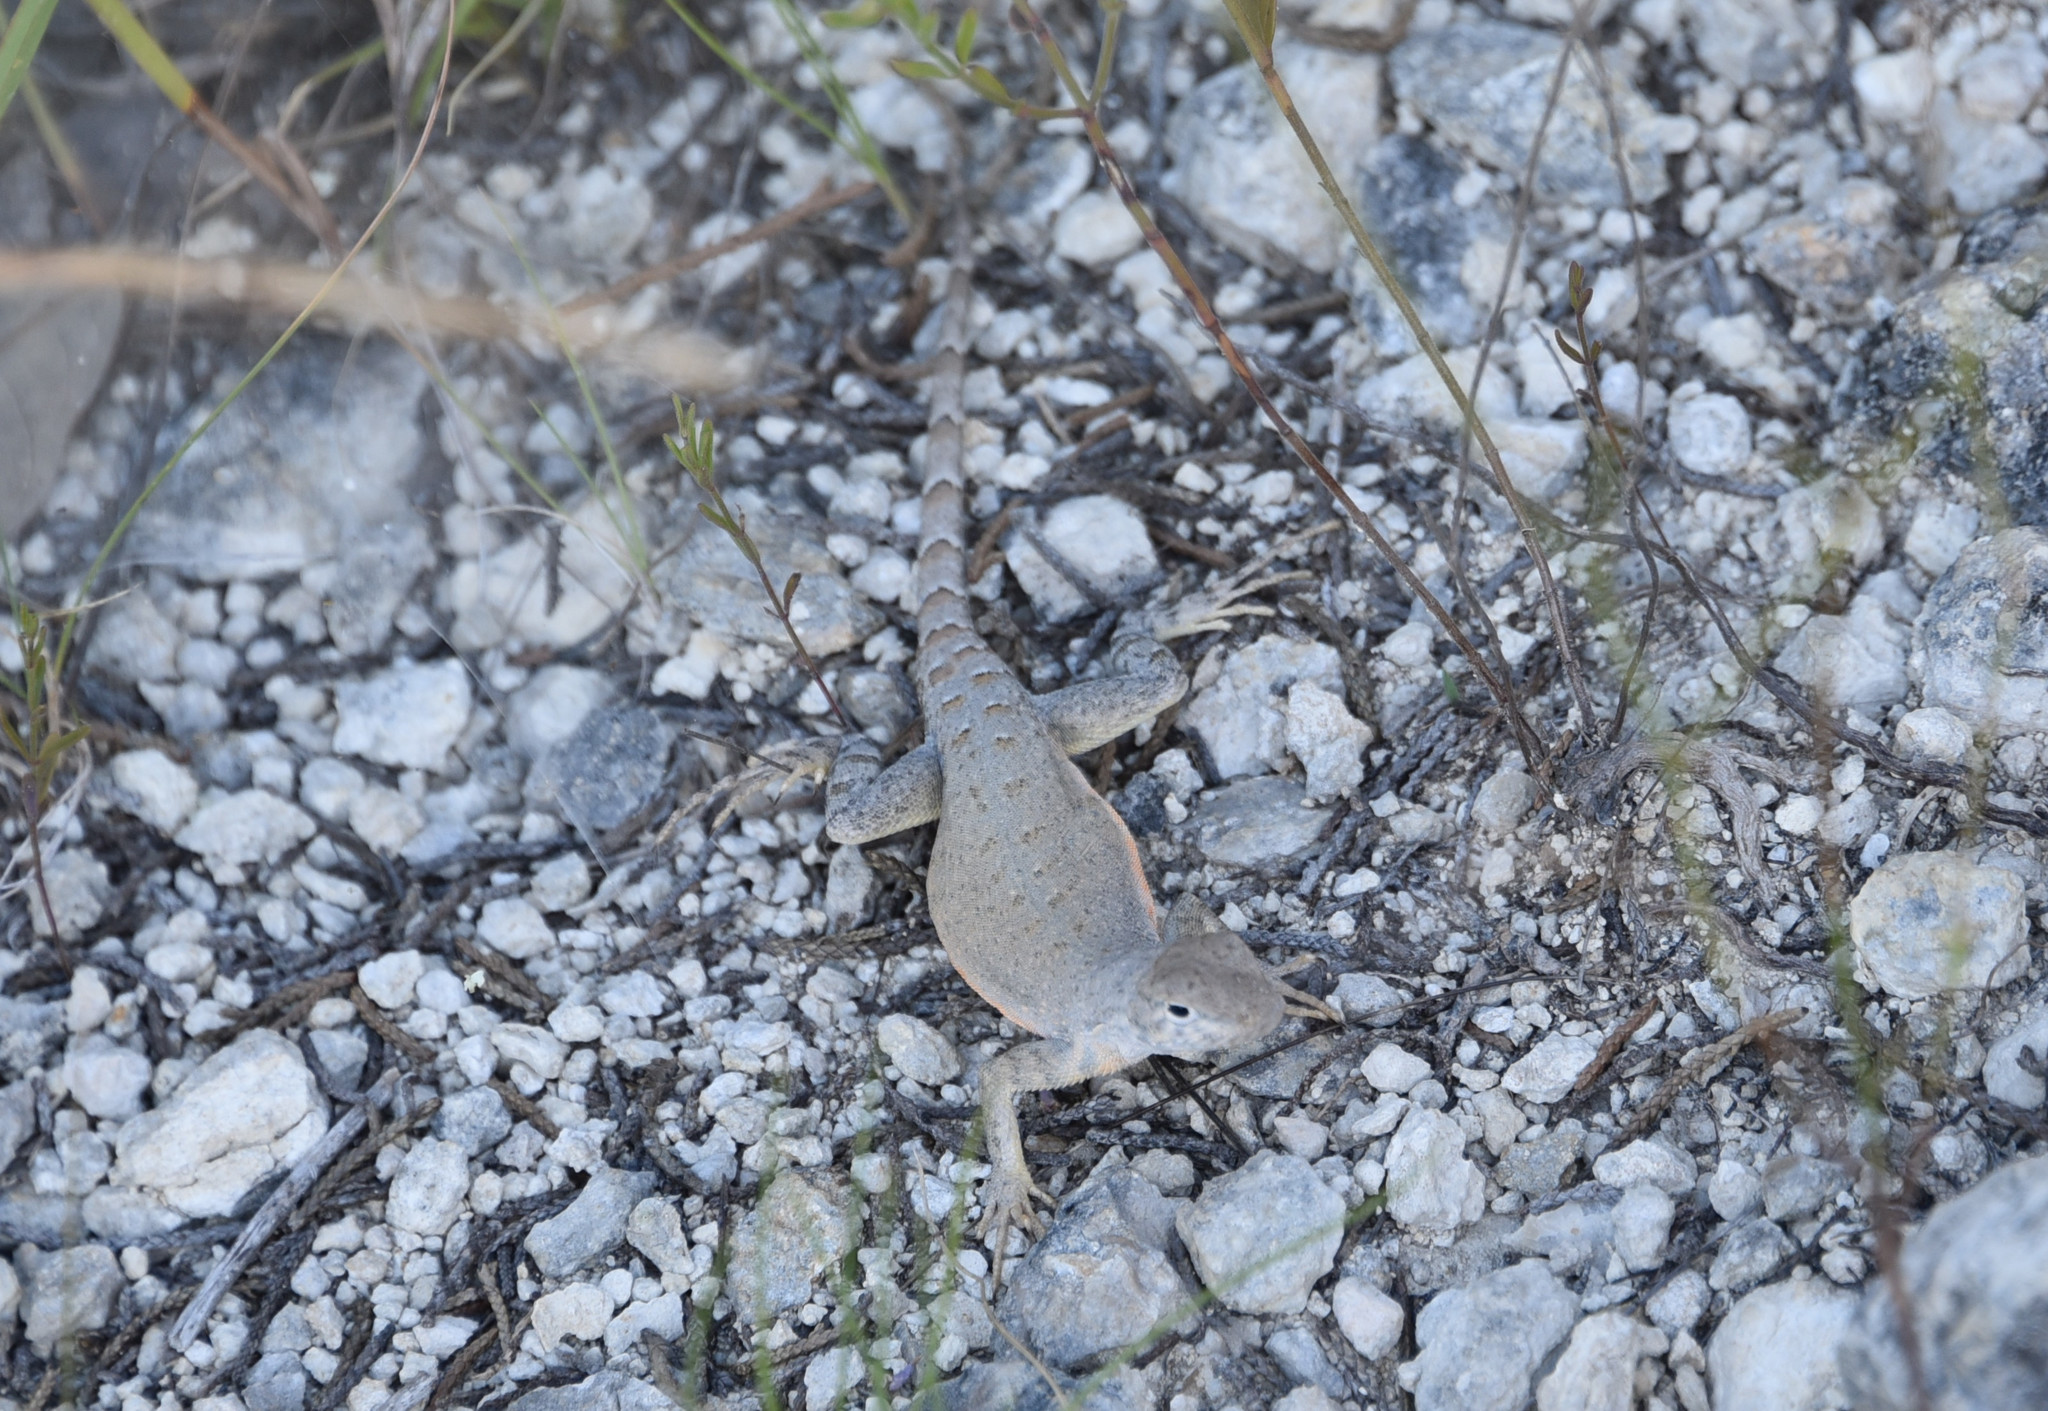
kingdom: Animalia
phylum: Chordata
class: Squamata
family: Phrynosomatidae
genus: Cophosaurus
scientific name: Cophosaurus texanus
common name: Greater earless lizard
